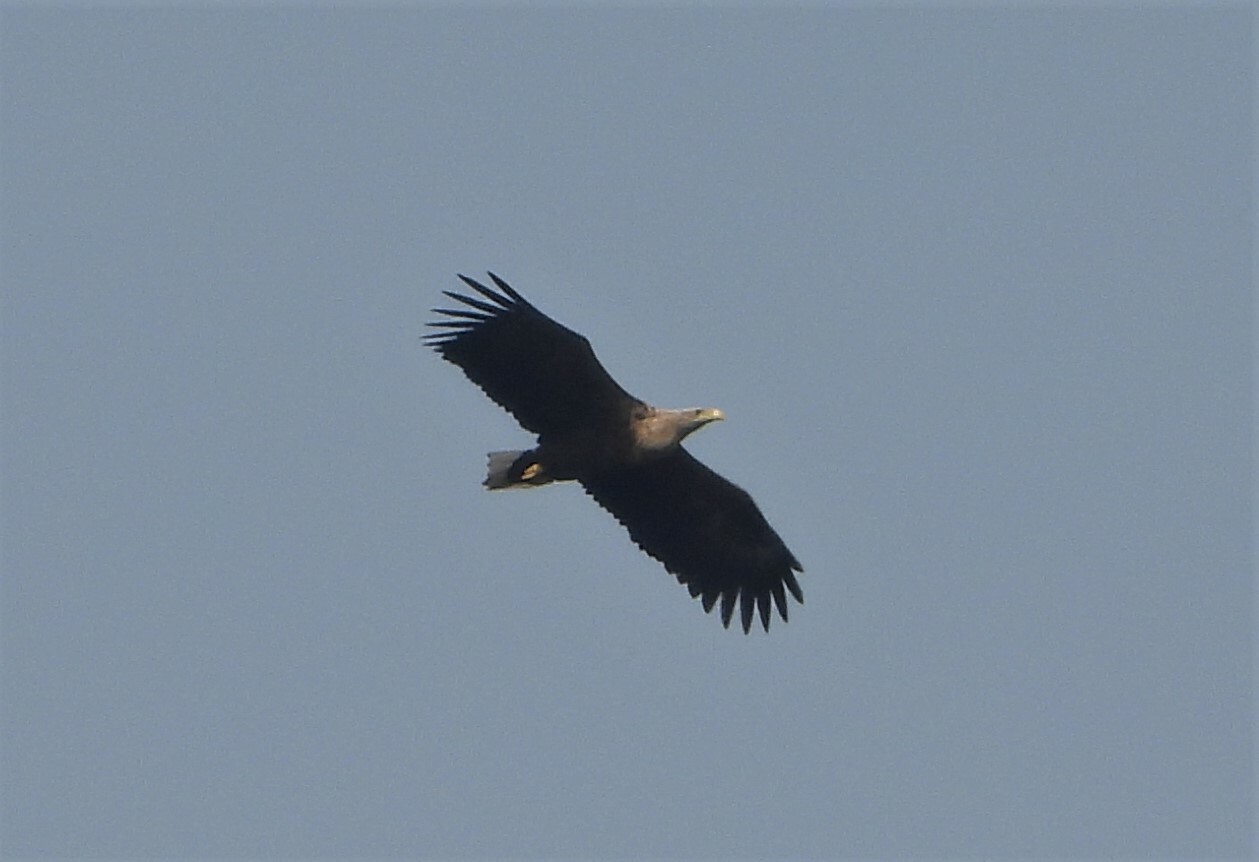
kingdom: Animalia
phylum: Chordata
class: Aves
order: Accipitriformes
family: Accipitridae
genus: Haliaeetus
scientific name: Haliaeetus albicilla
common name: White-tailed eagle
